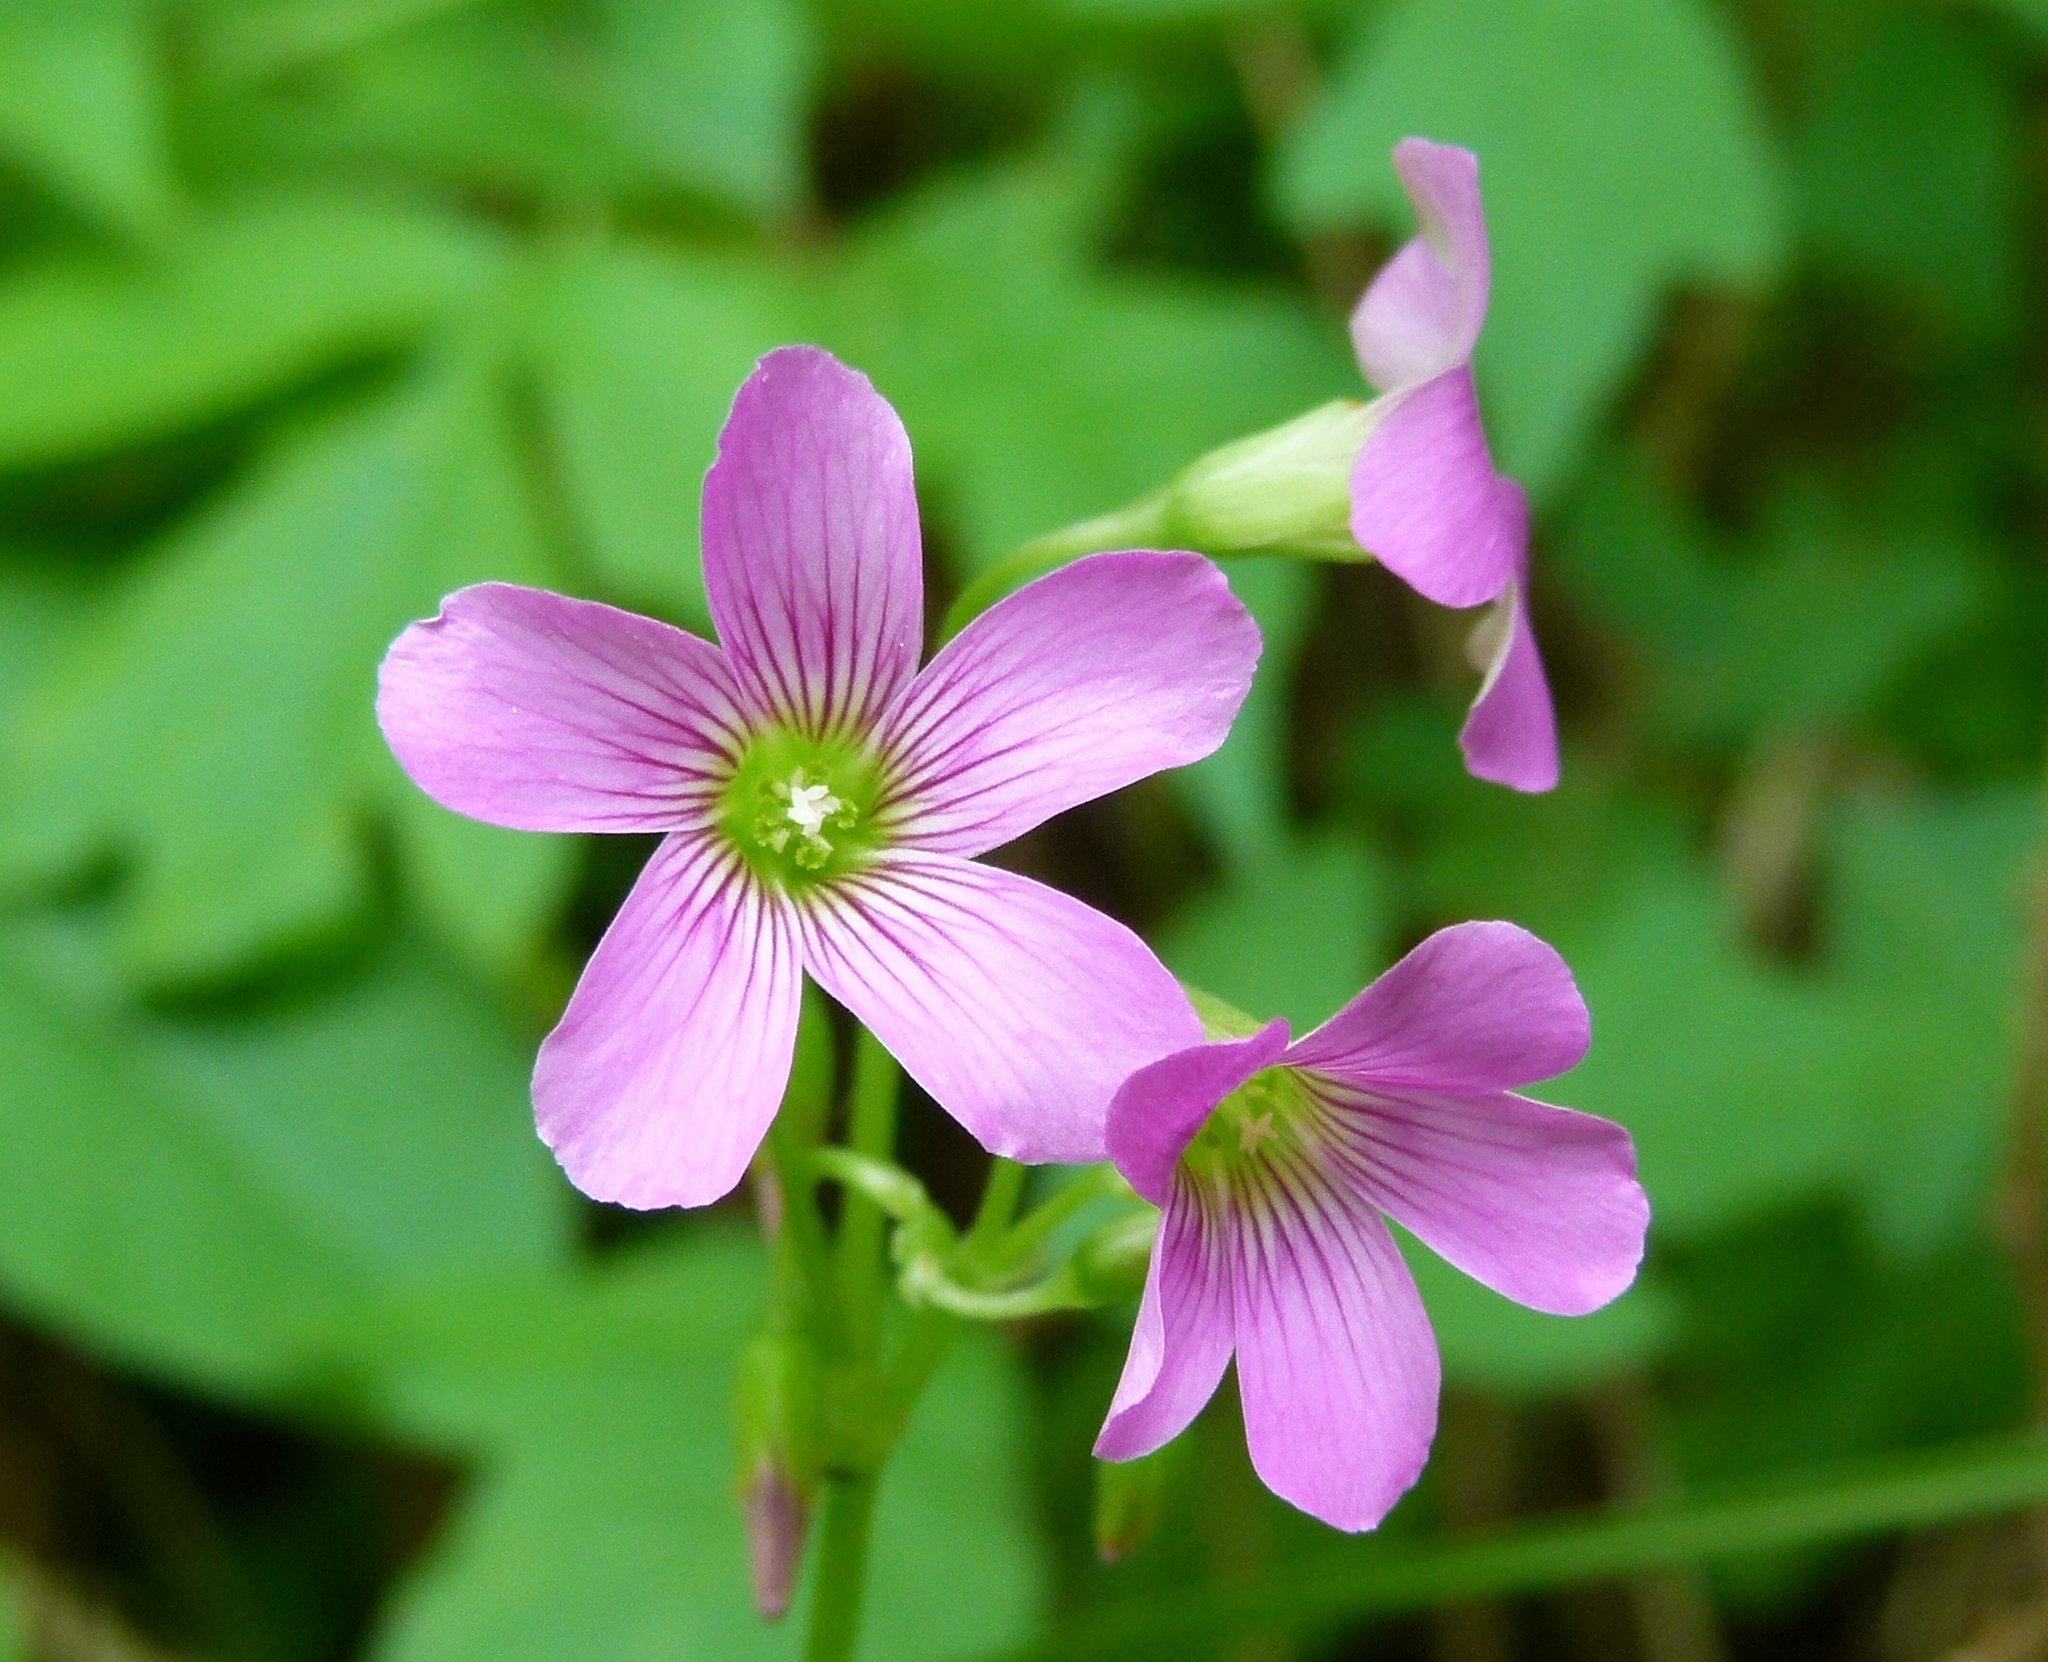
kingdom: Plantae
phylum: Tracheophyta
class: Magnoliopsida
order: Oxalidales
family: Oxalidaceae
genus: Oxalis
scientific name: Oxalis debilis
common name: Large-flowered pink-sorrel
